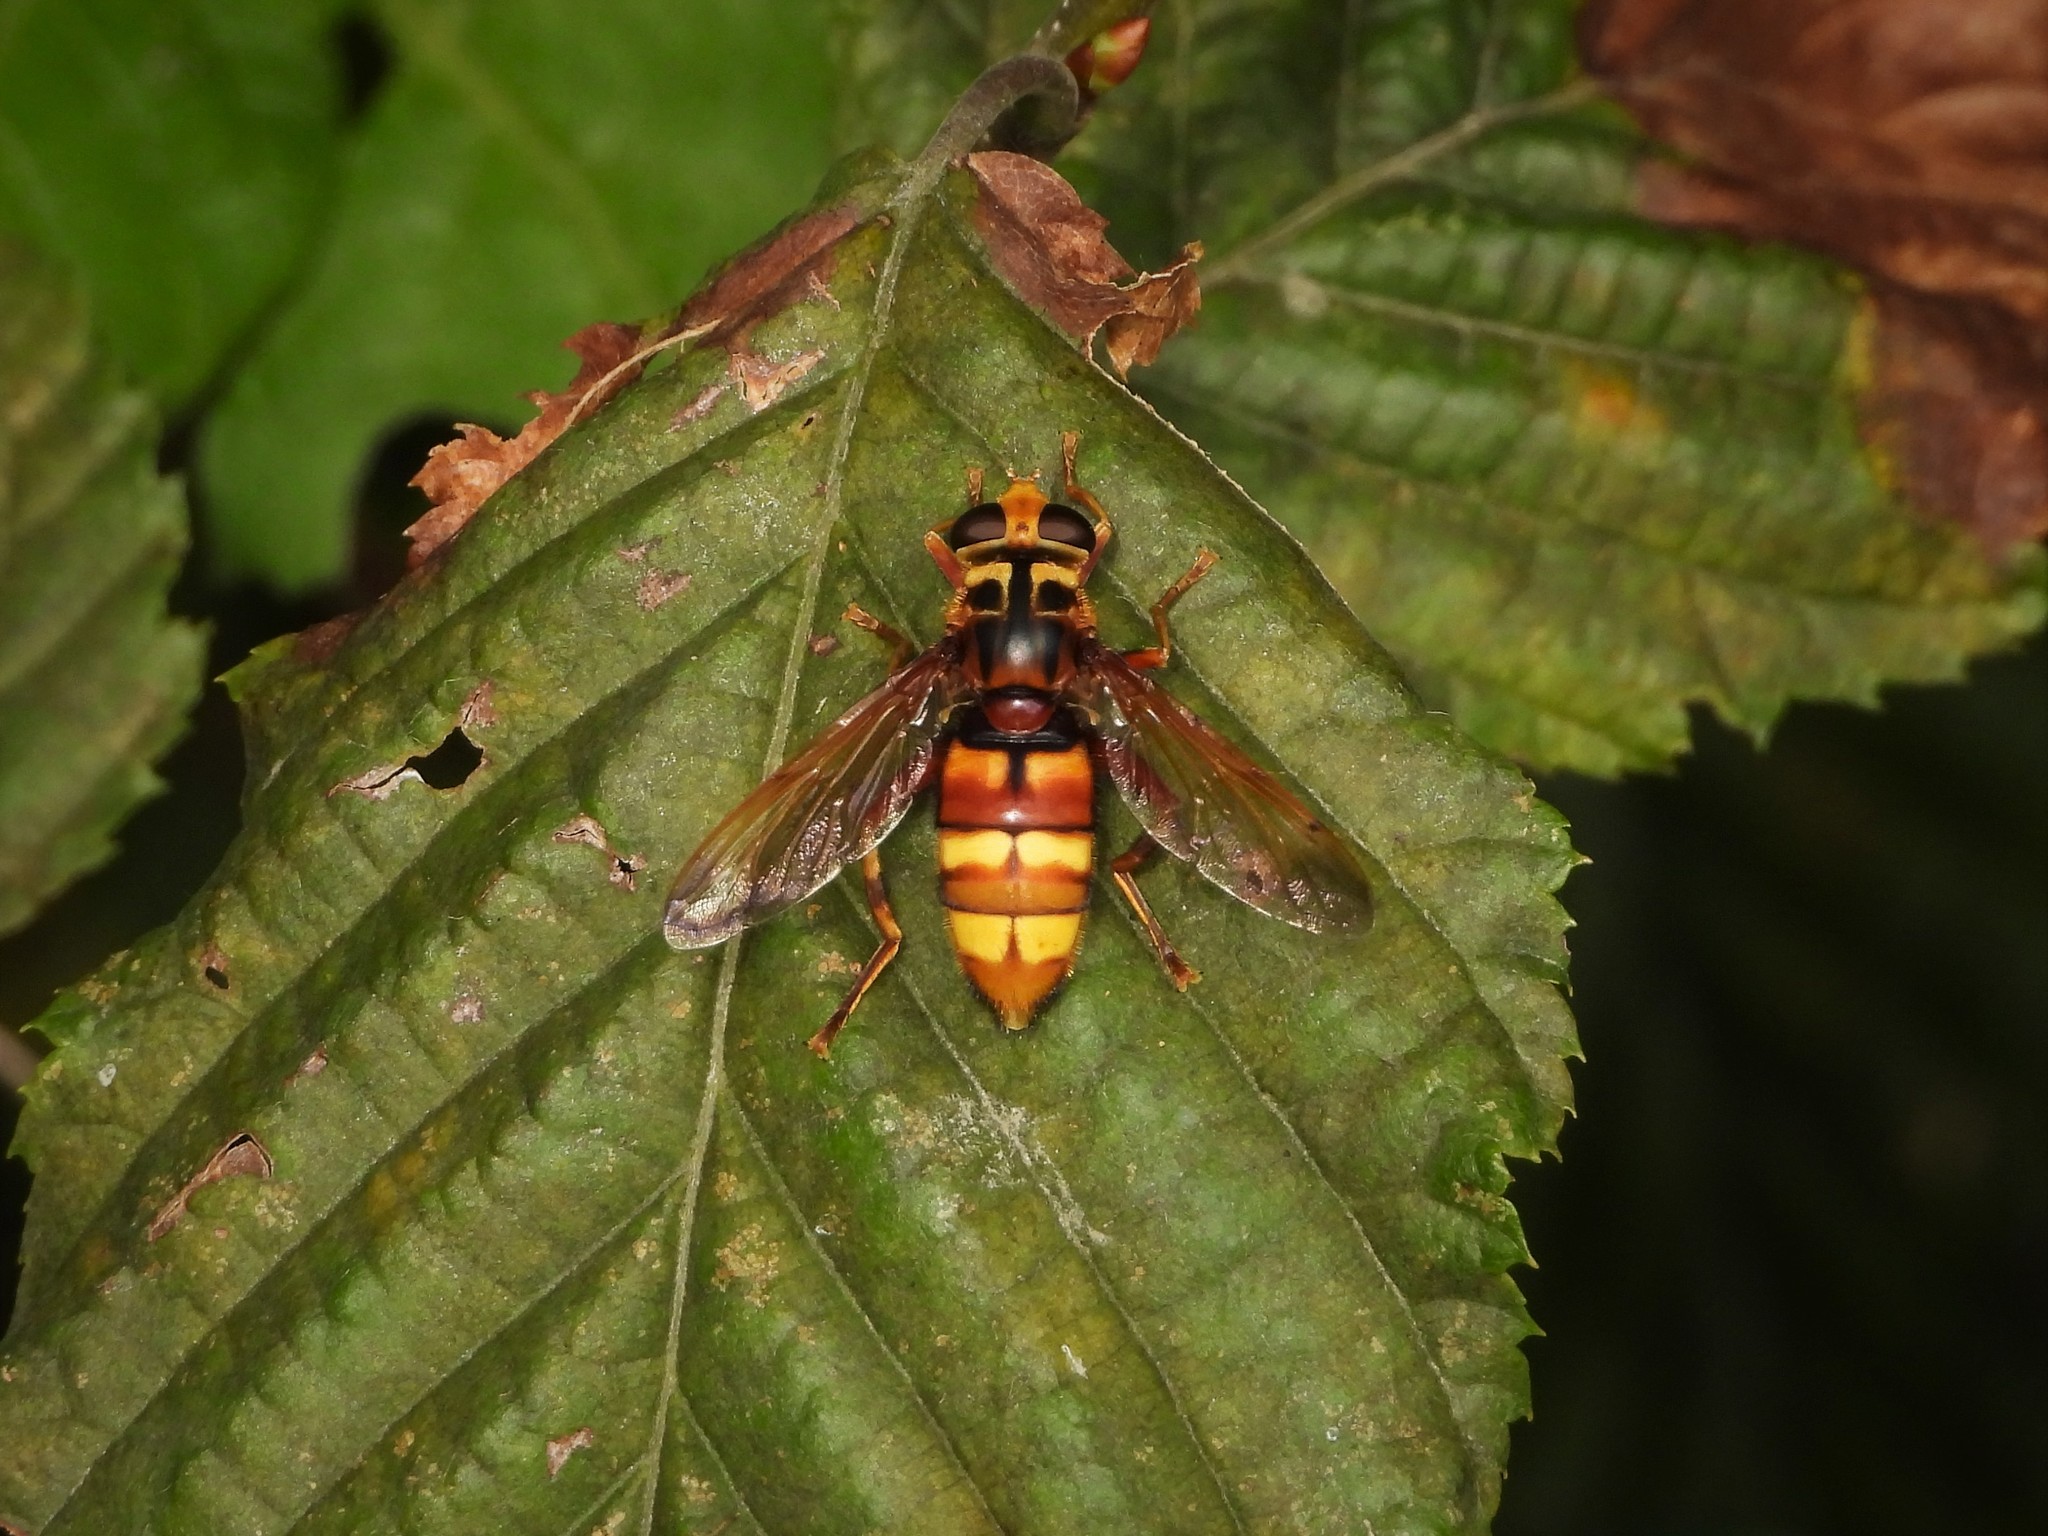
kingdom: Animalia
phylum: Arthropoda
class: Insecta
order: Diptera
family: Syrphidae
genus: Milesia
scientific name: Milesia crabroniformis
